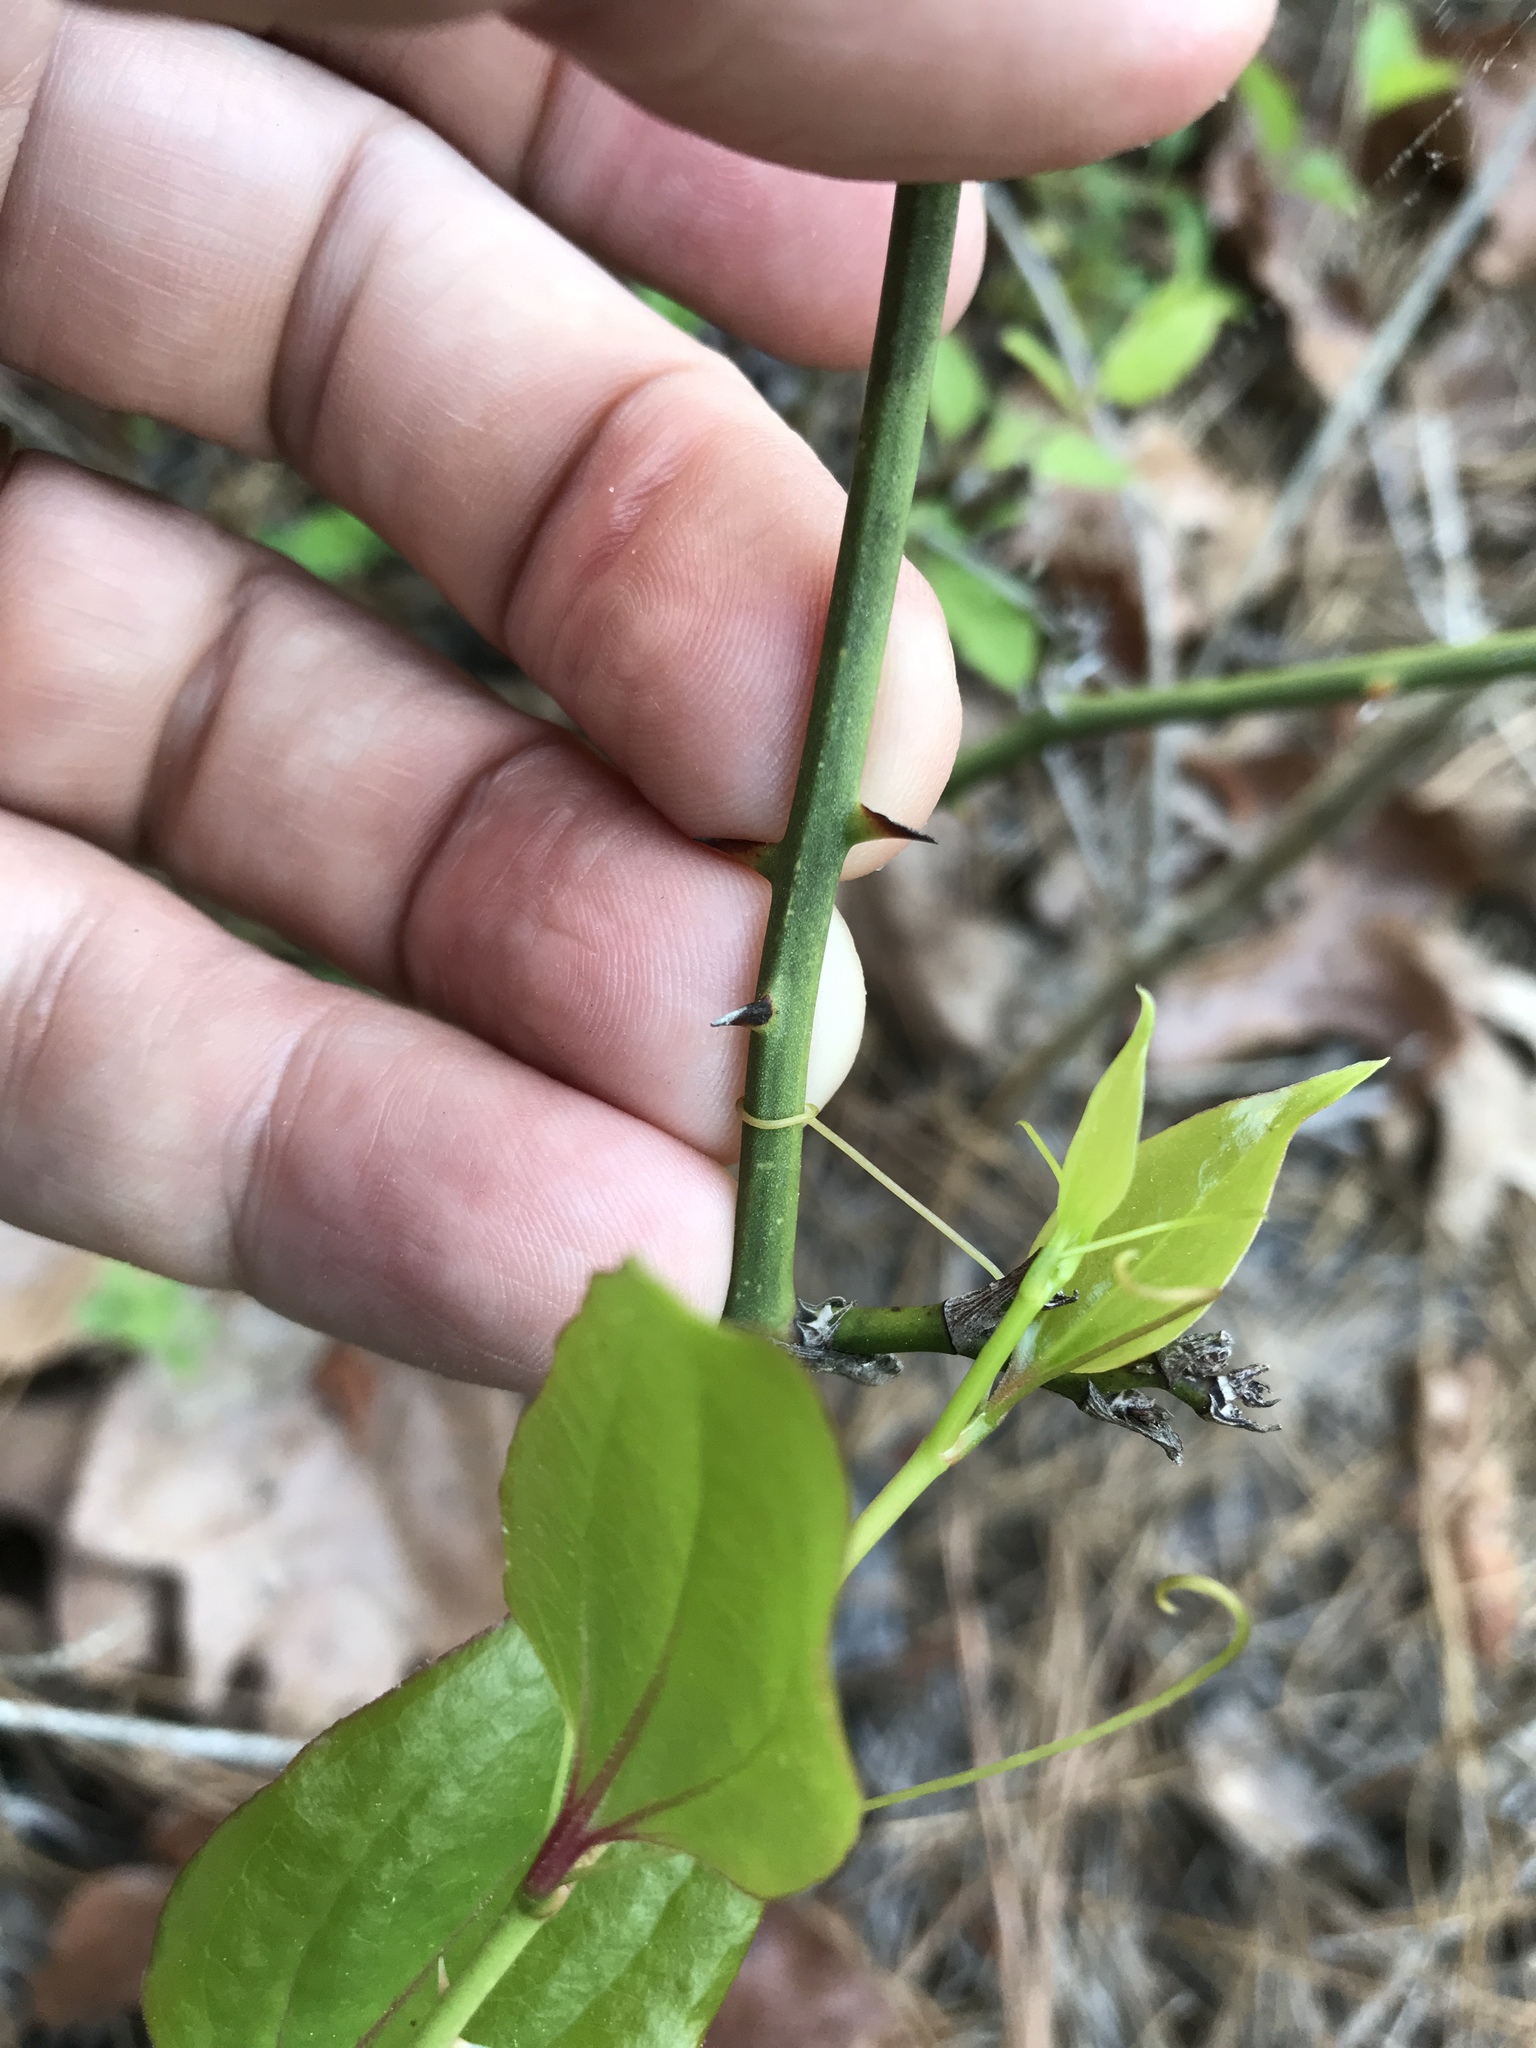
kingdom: Plantae
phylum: Tracheophyta
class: Liliopsida
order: Liliales
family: Smilacaceae
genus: Smilax
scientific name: Smilax rotundifolia
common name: Bullbriar
